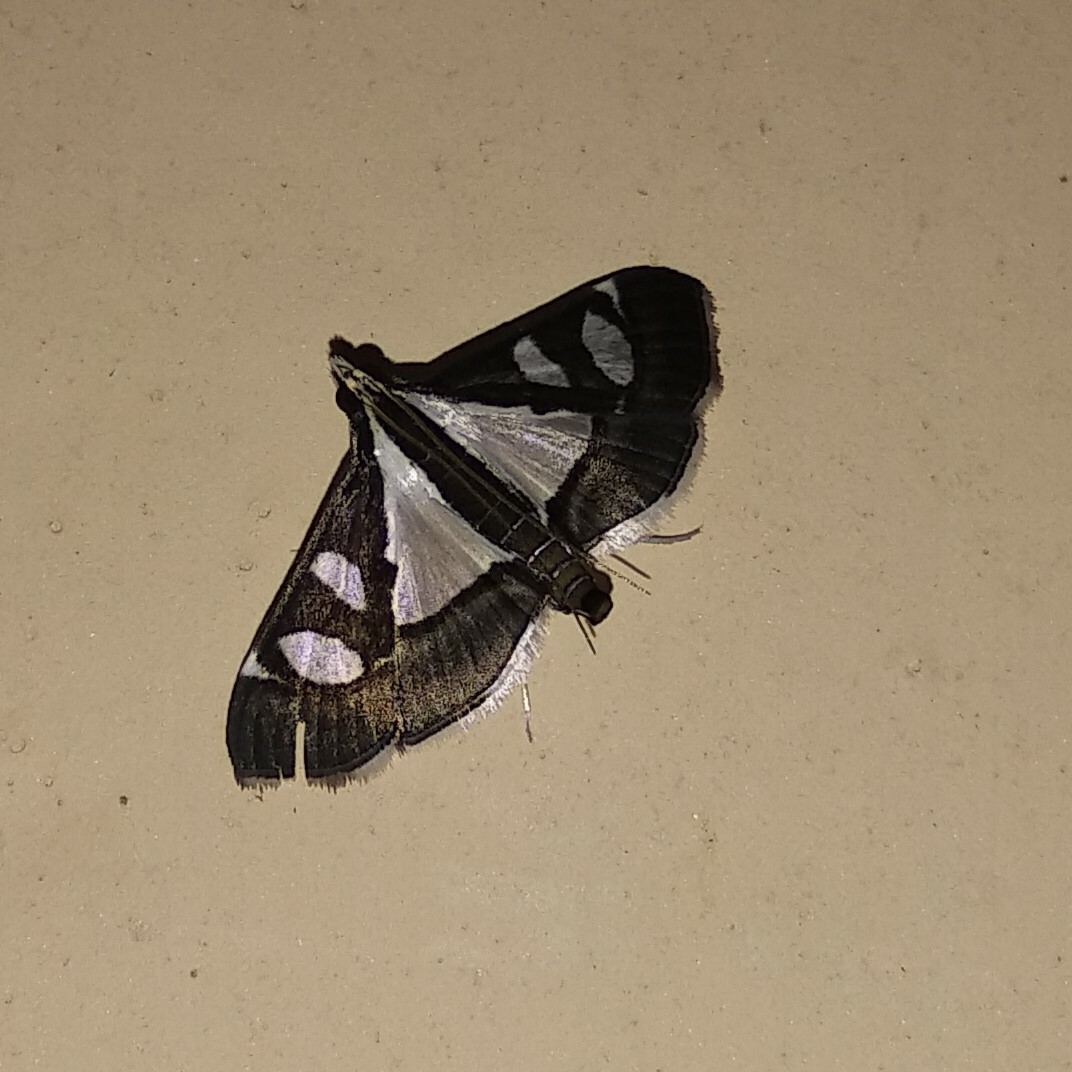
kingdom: Animalia
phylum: Arthropoda
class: Insecta
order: Lepidoptera
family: Crambidae
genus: Glyphodes
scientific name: Glyphodes bivitralis
